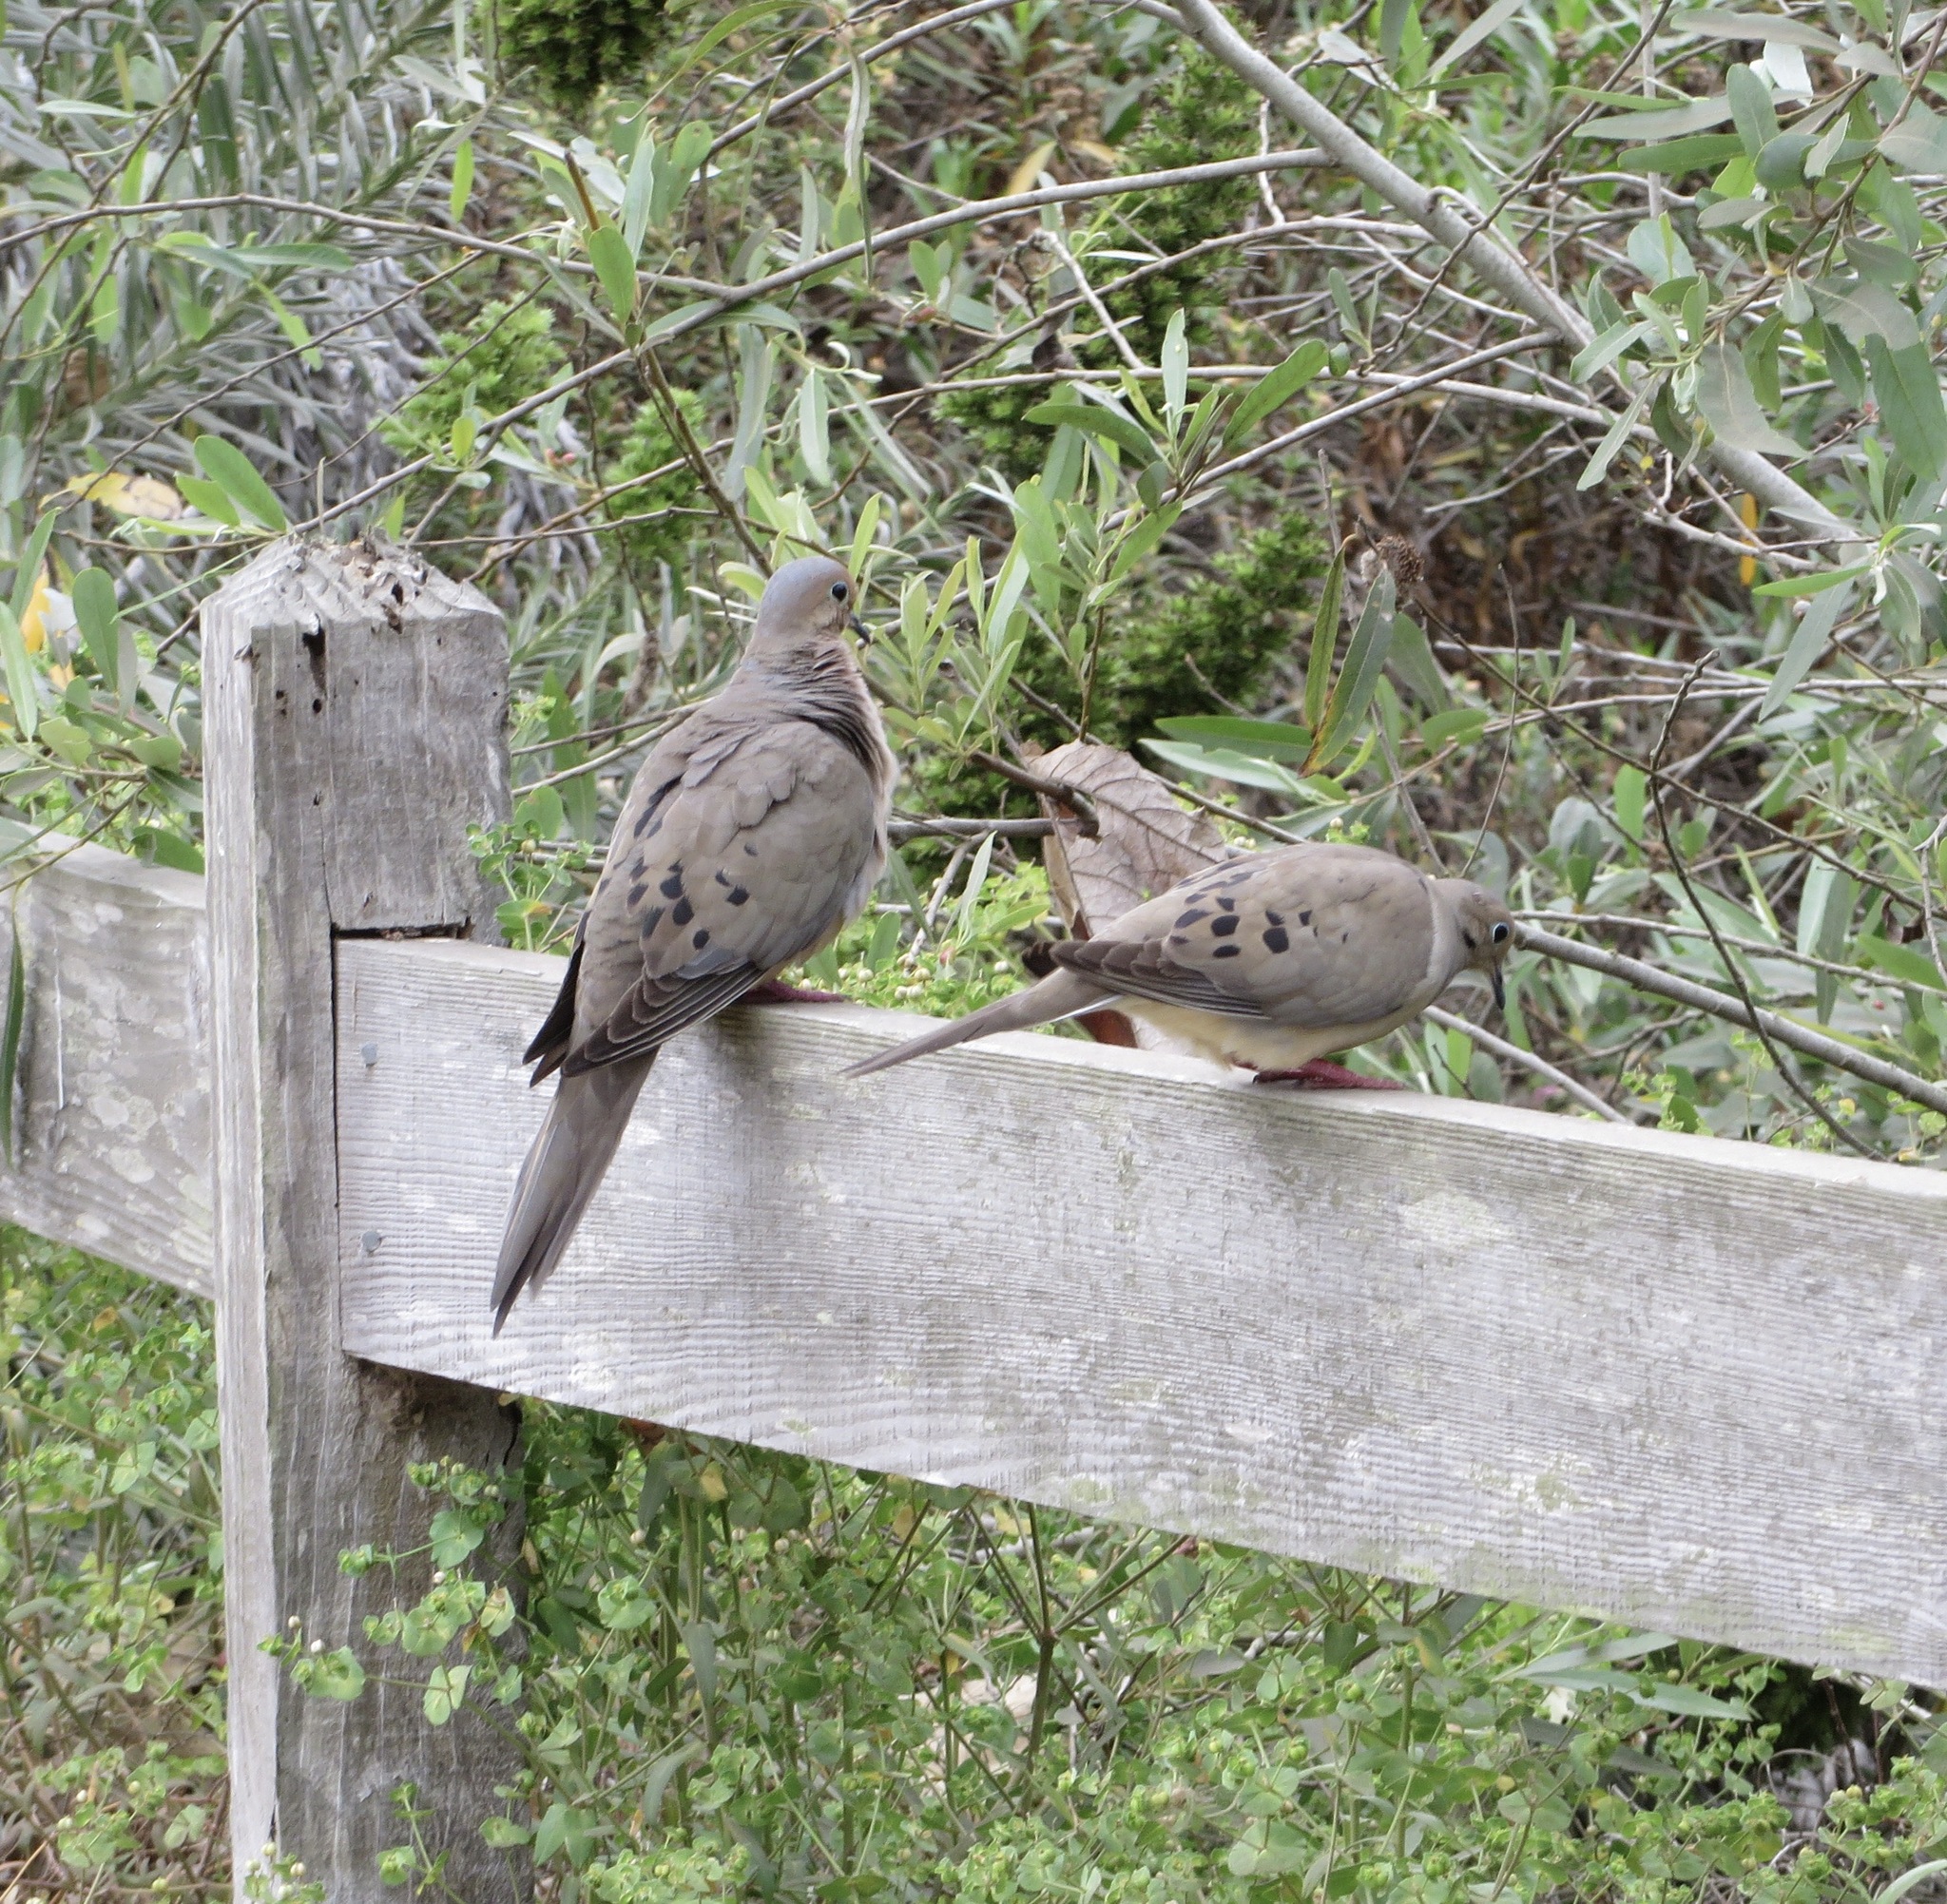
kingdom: Animalia
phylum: Chordata
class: Aves
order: Columbiformes
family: Columbidae
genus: Zenaida
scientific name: Zenaida macroura
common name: Mourning dove
